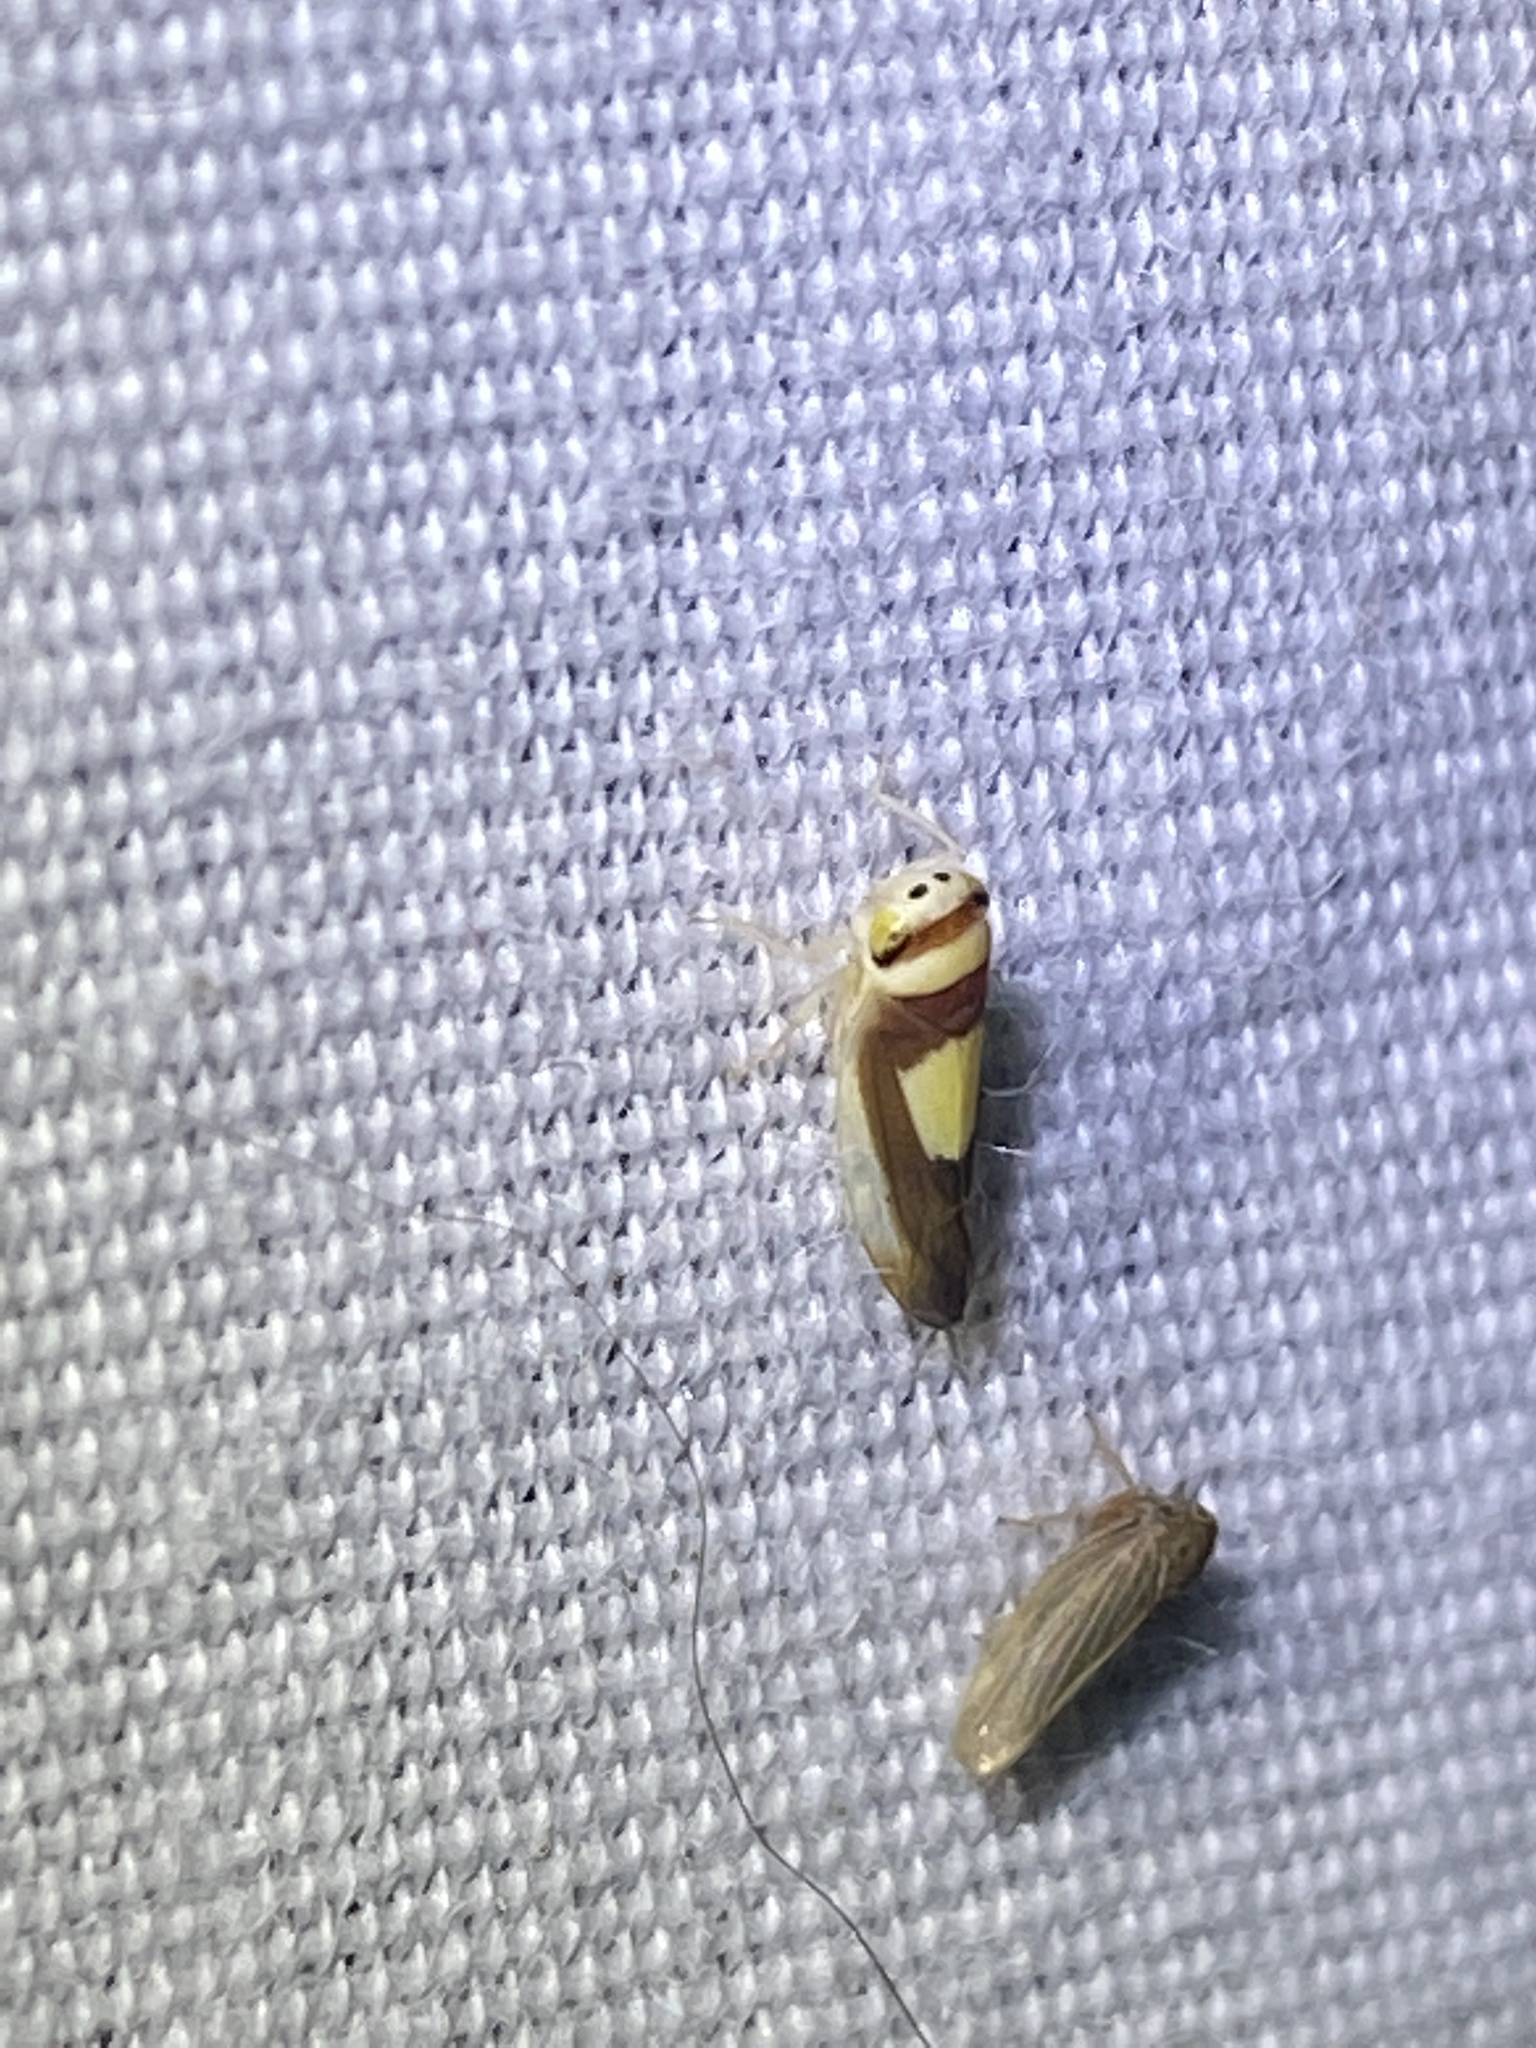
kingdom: Animalia
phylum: Arthropoda
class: Insecta
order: Hemiptera
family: Cicadellidae
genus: Colladonus
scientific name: Colladonus clitellarius
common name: The saddleback leafhopper
